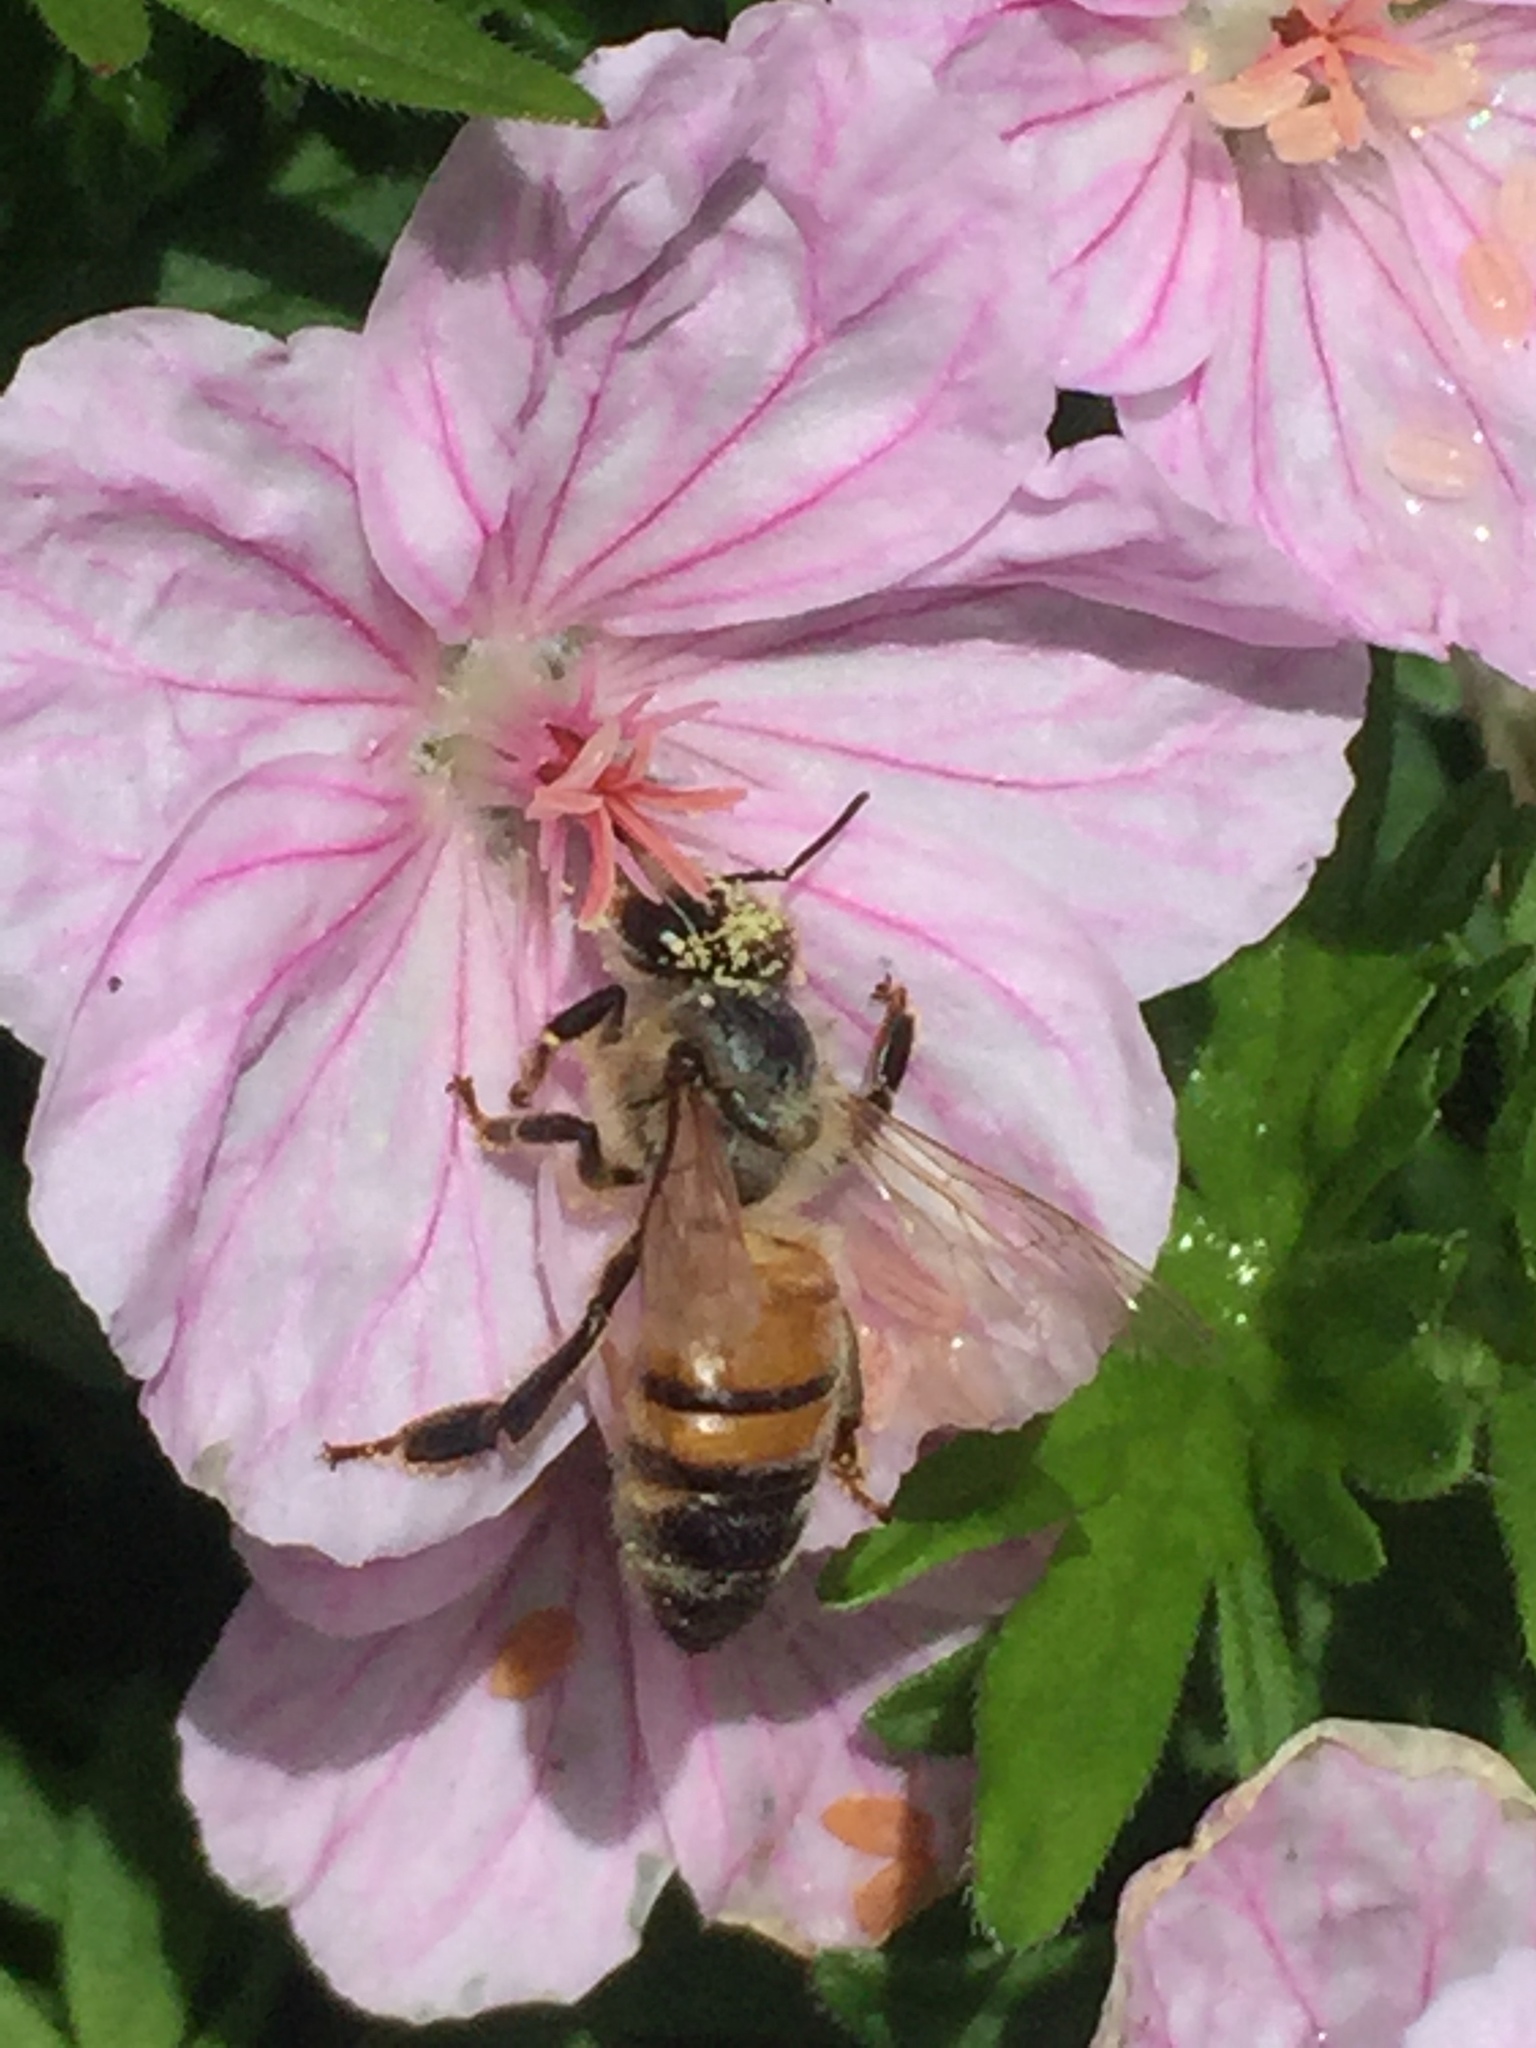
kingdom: Animalia
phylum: Arthropoda
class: Insecta
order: Hymenoptera
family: Apidae
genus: Apis
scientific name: Apis mellifera
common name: Honey bee
